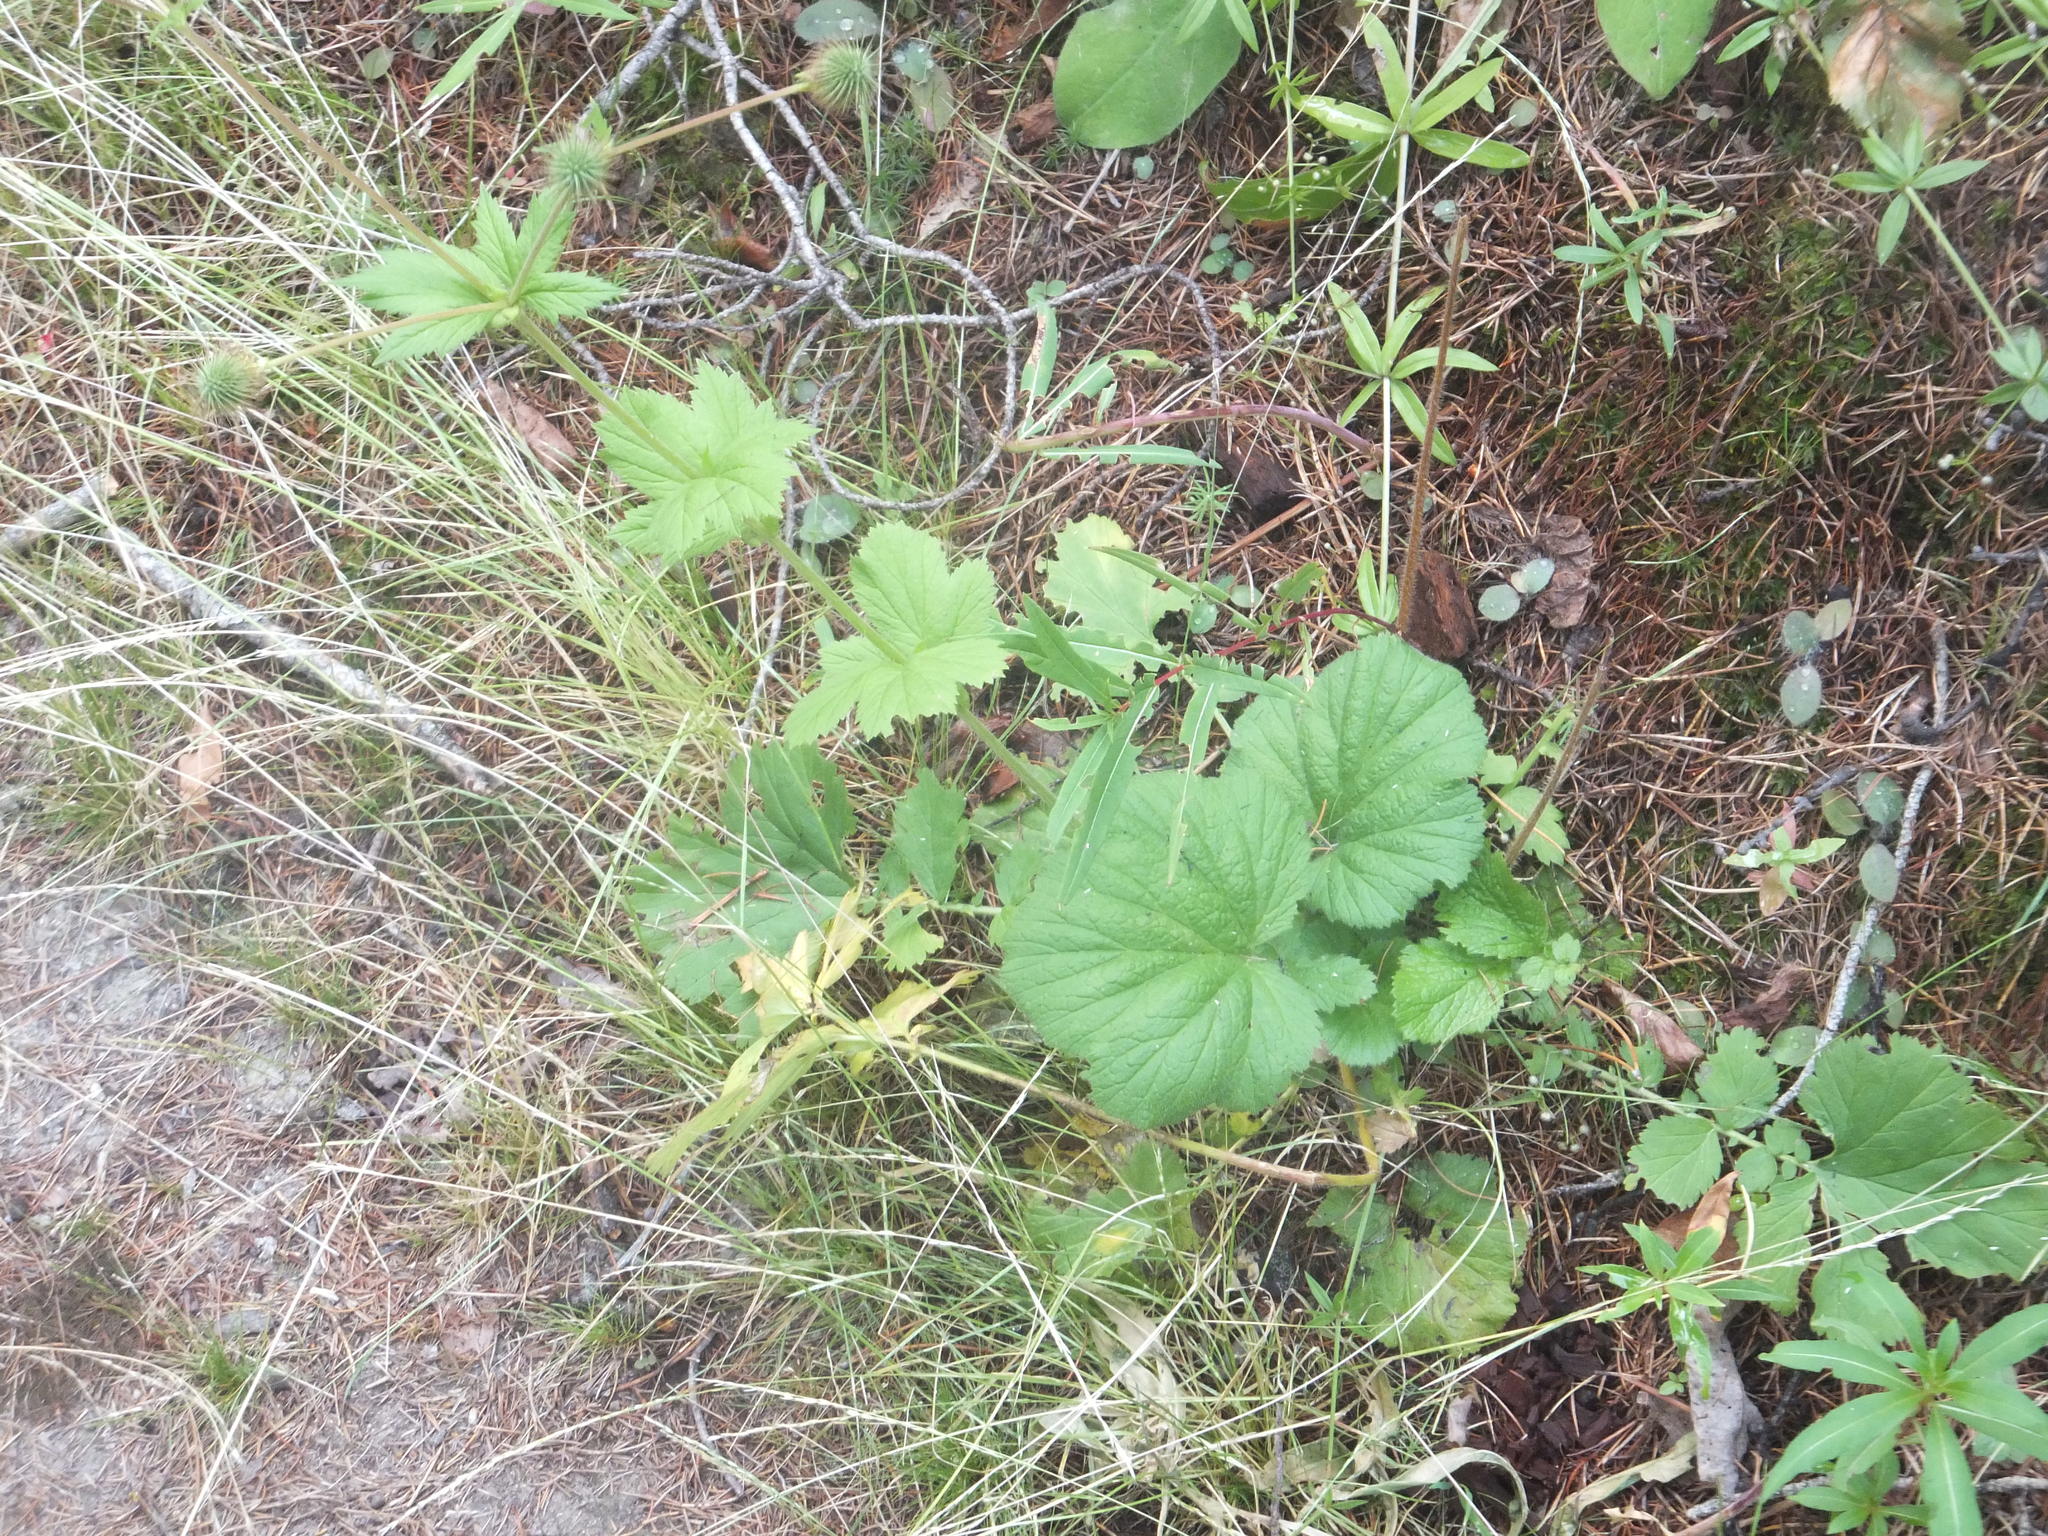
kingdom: Plantae
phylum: Tracheophyta
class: Magnoliopsida
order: Rosales
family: Rosaceae
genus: Geum
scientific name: Geum macrophyllum
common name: Large-leaved avens
